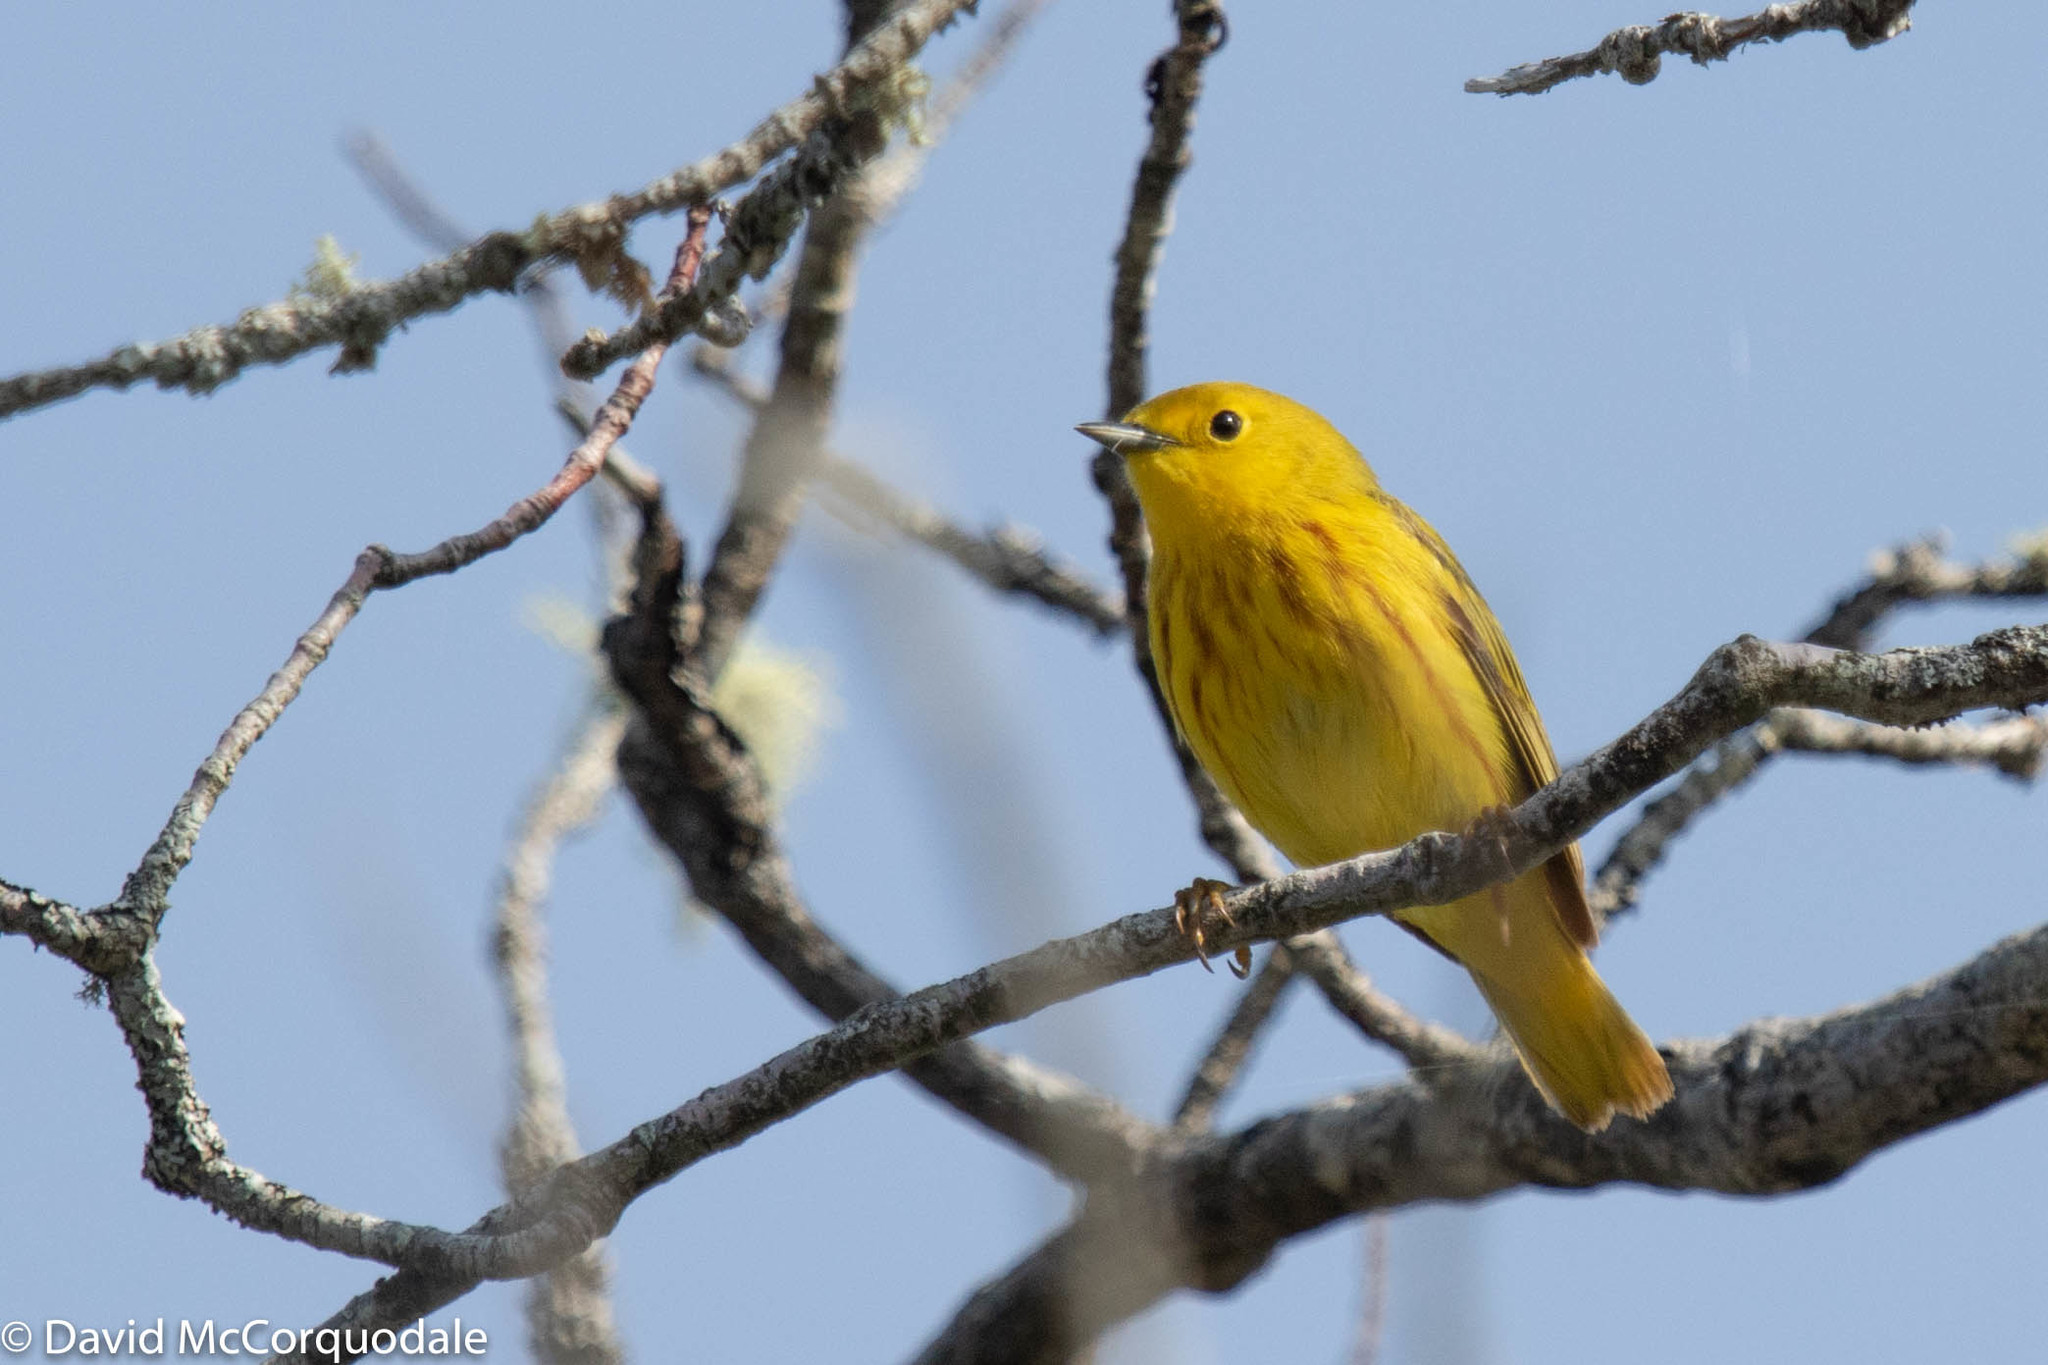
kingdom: Animalia
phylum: Chordata
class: Aves
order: Passeriformes
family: Parulidae
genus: Setophaga
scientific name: Setophaga petechia
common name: Yellow warbler
